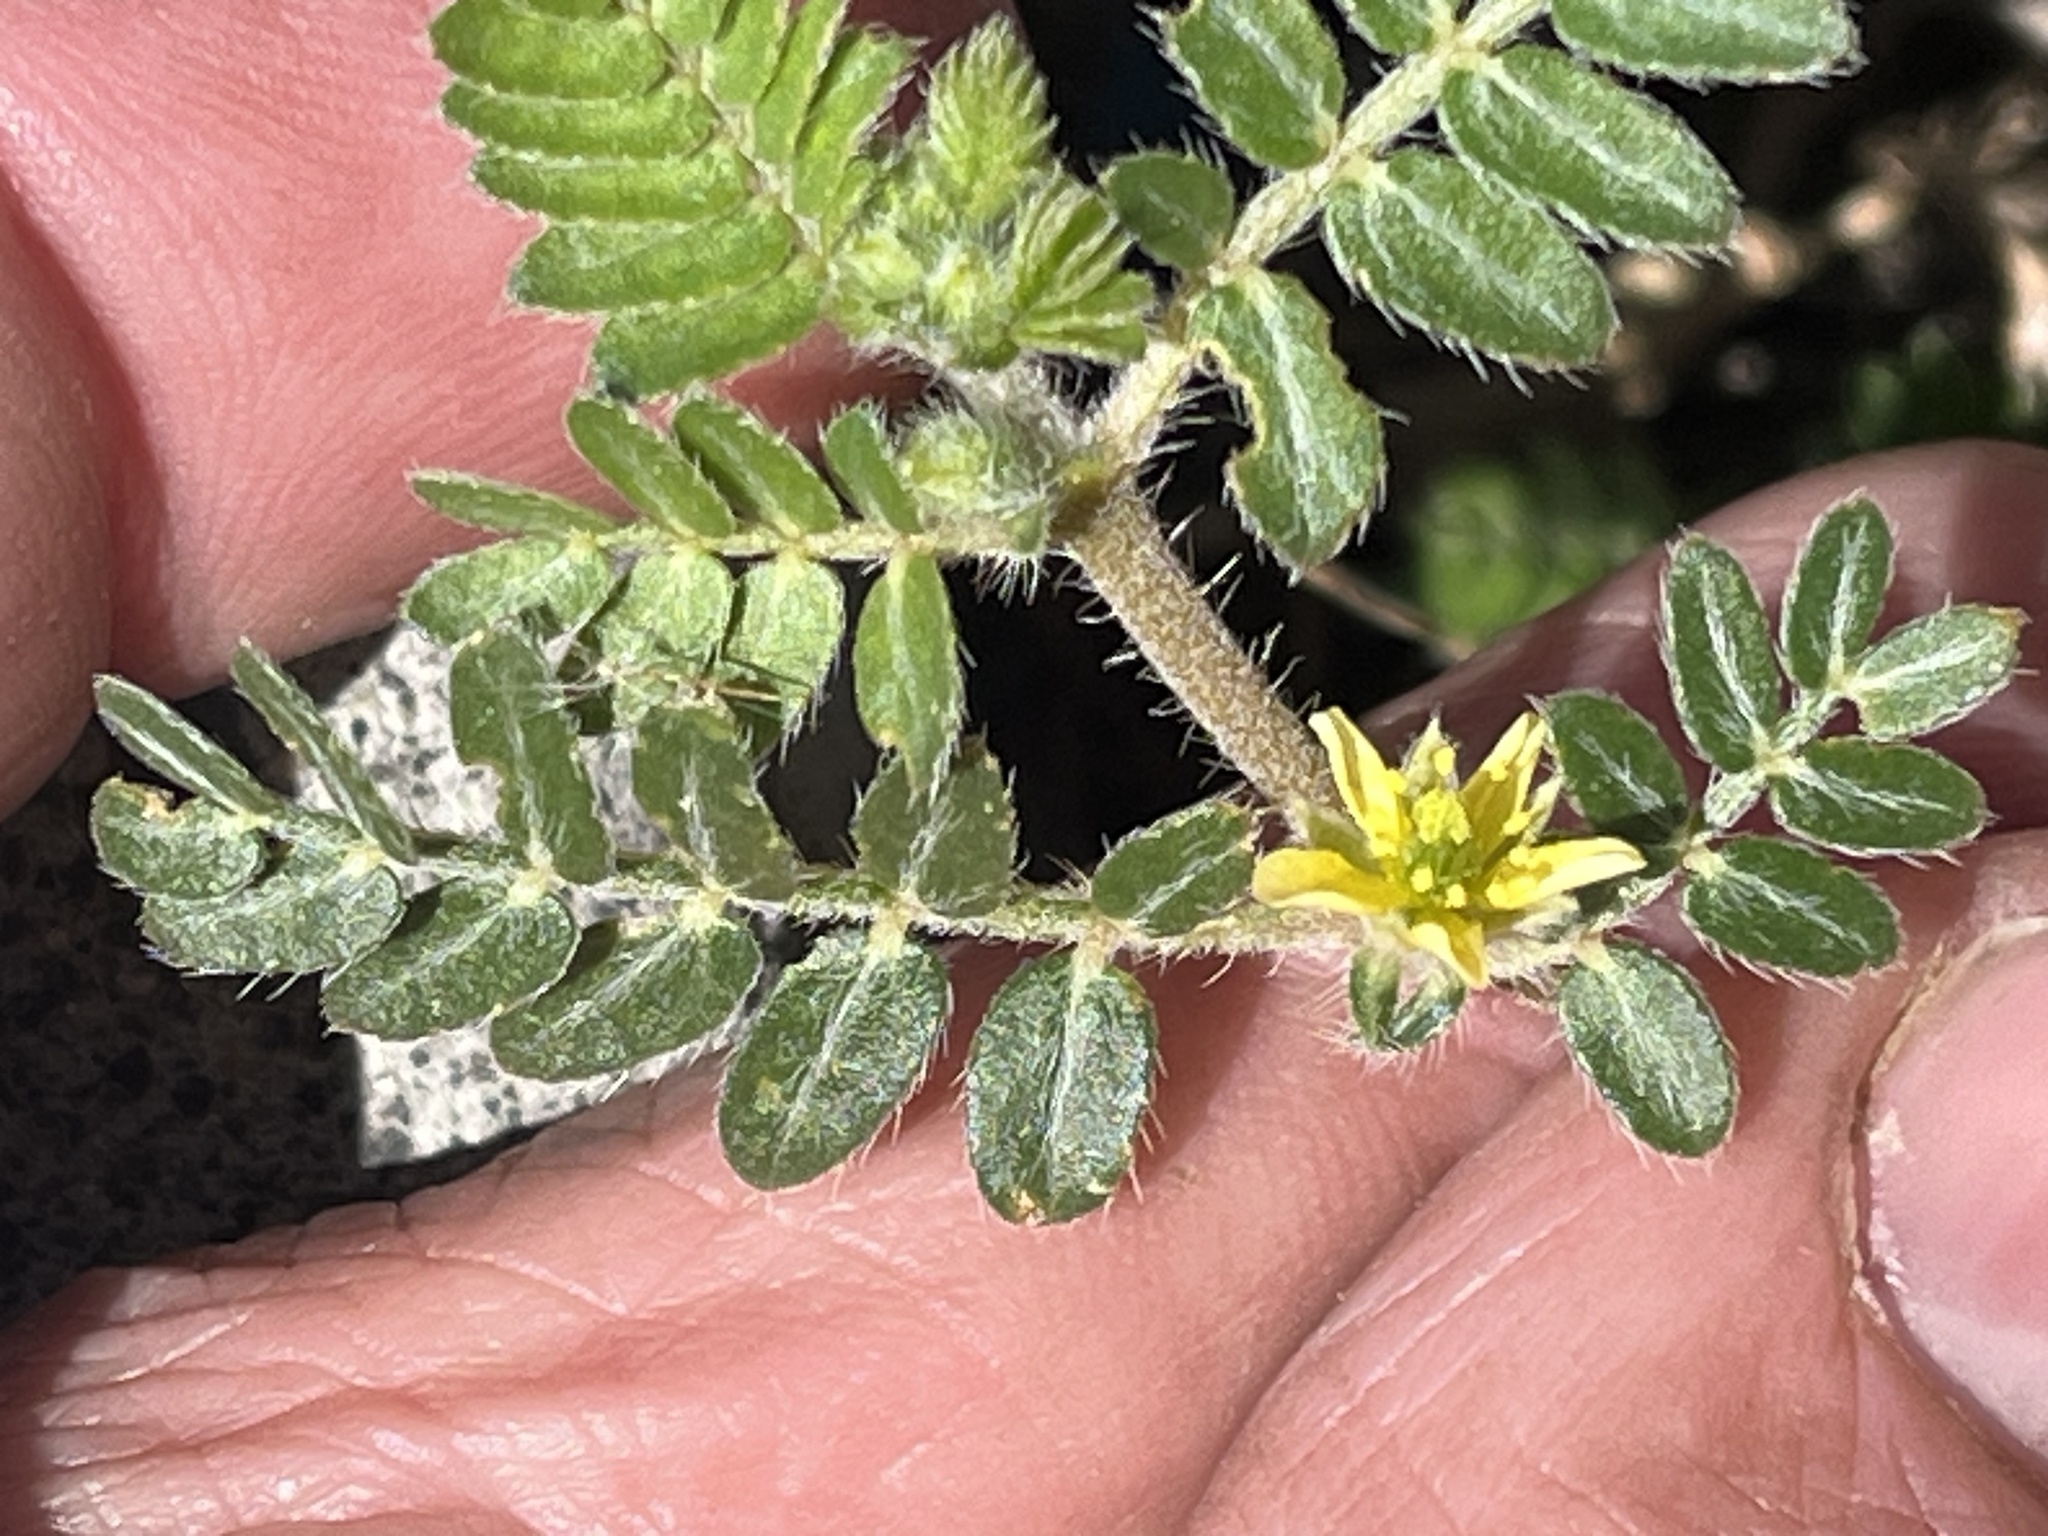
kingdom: Plantae
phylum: Tracheophyta
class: Magnoliopsida
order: Zygophyllales
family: Zygophyllaceae
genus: Tribulus
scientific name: Tribulus terrestris
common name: Puncturevine
